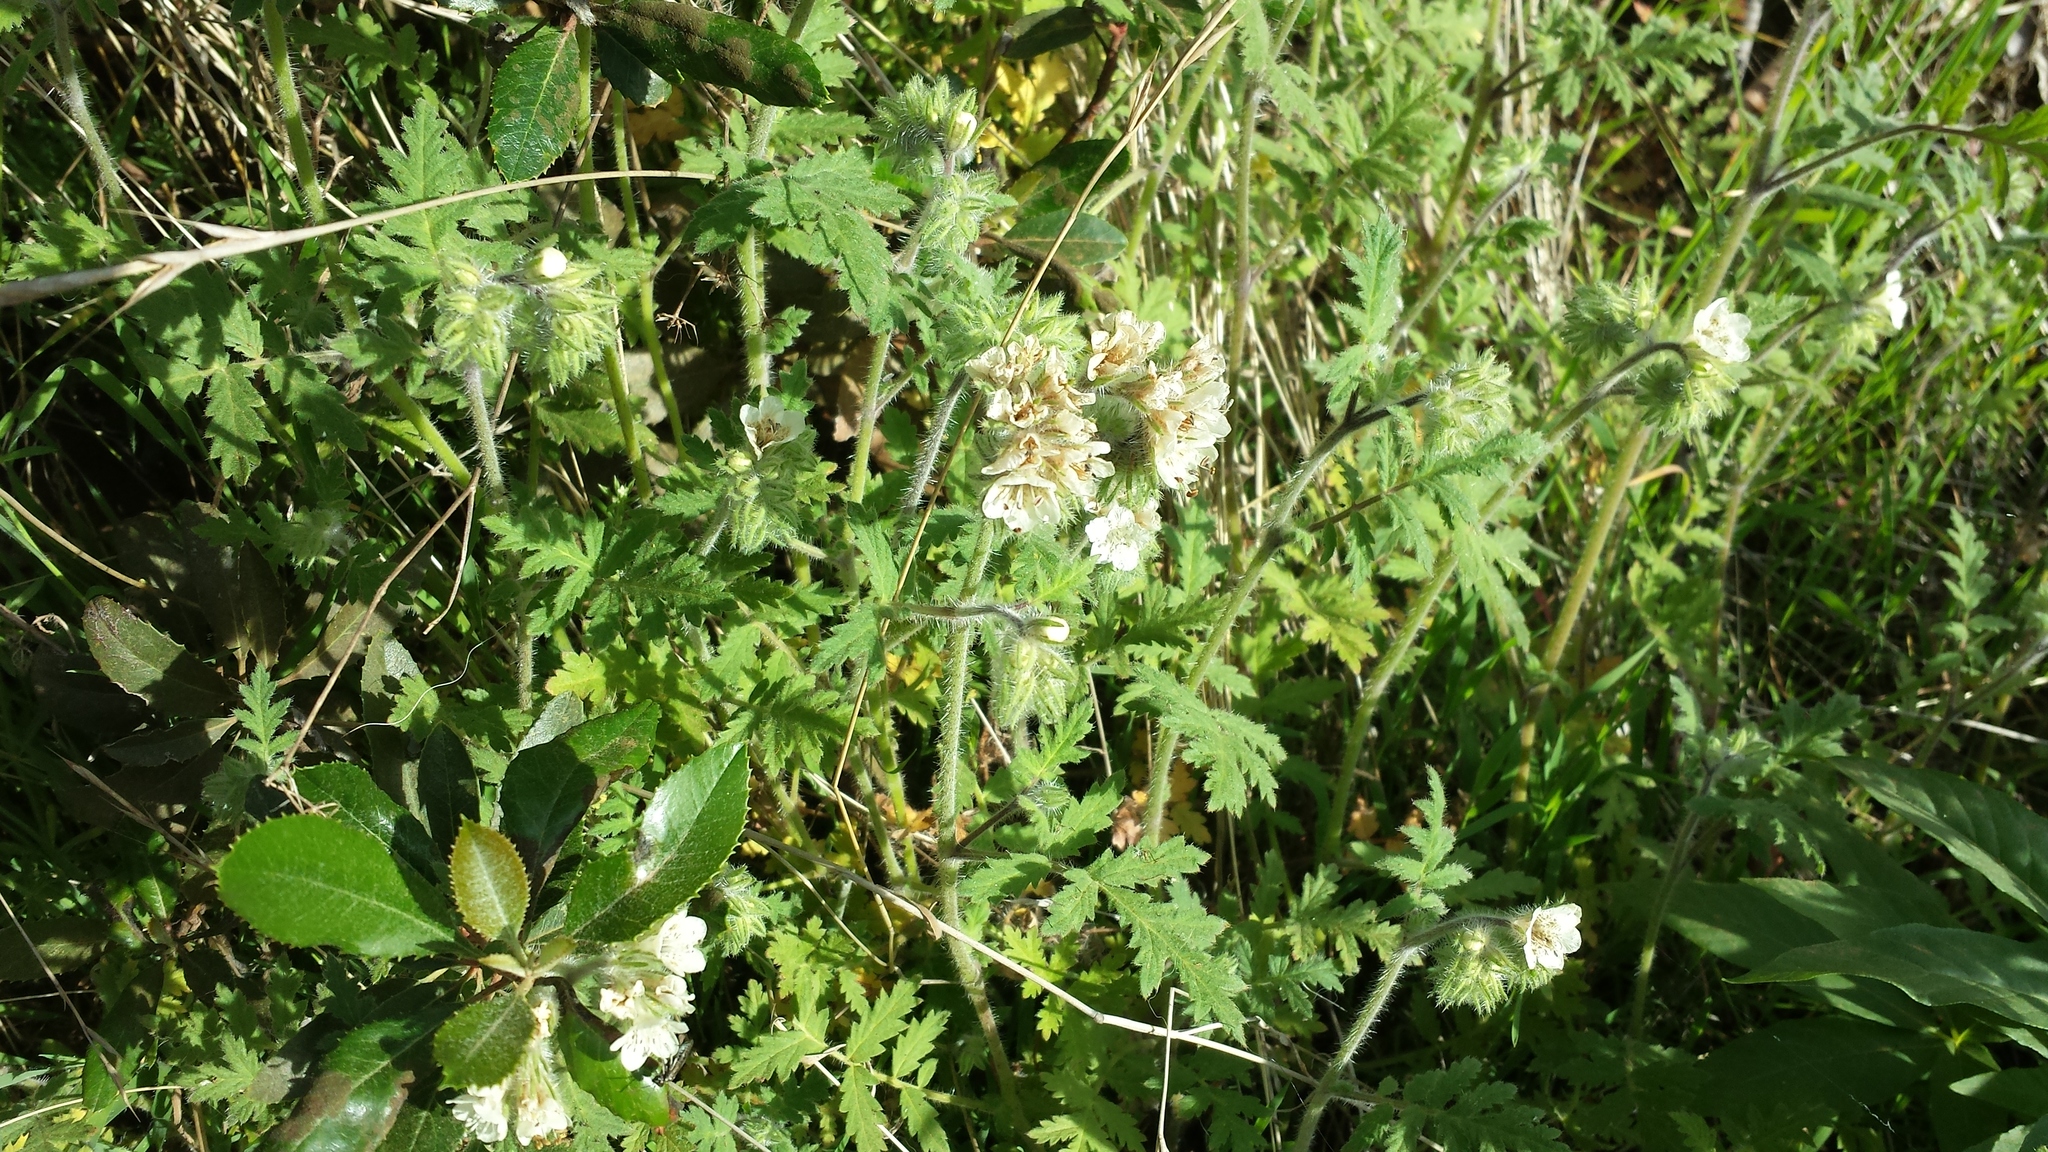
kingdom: Plantae
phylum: Tracheophyta
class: Magnoliopsida
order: Boraginales
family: Hydrophyllaceae
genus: Phacelia
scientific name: Phacelia cicutaria
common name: Caterpillar phacelia
